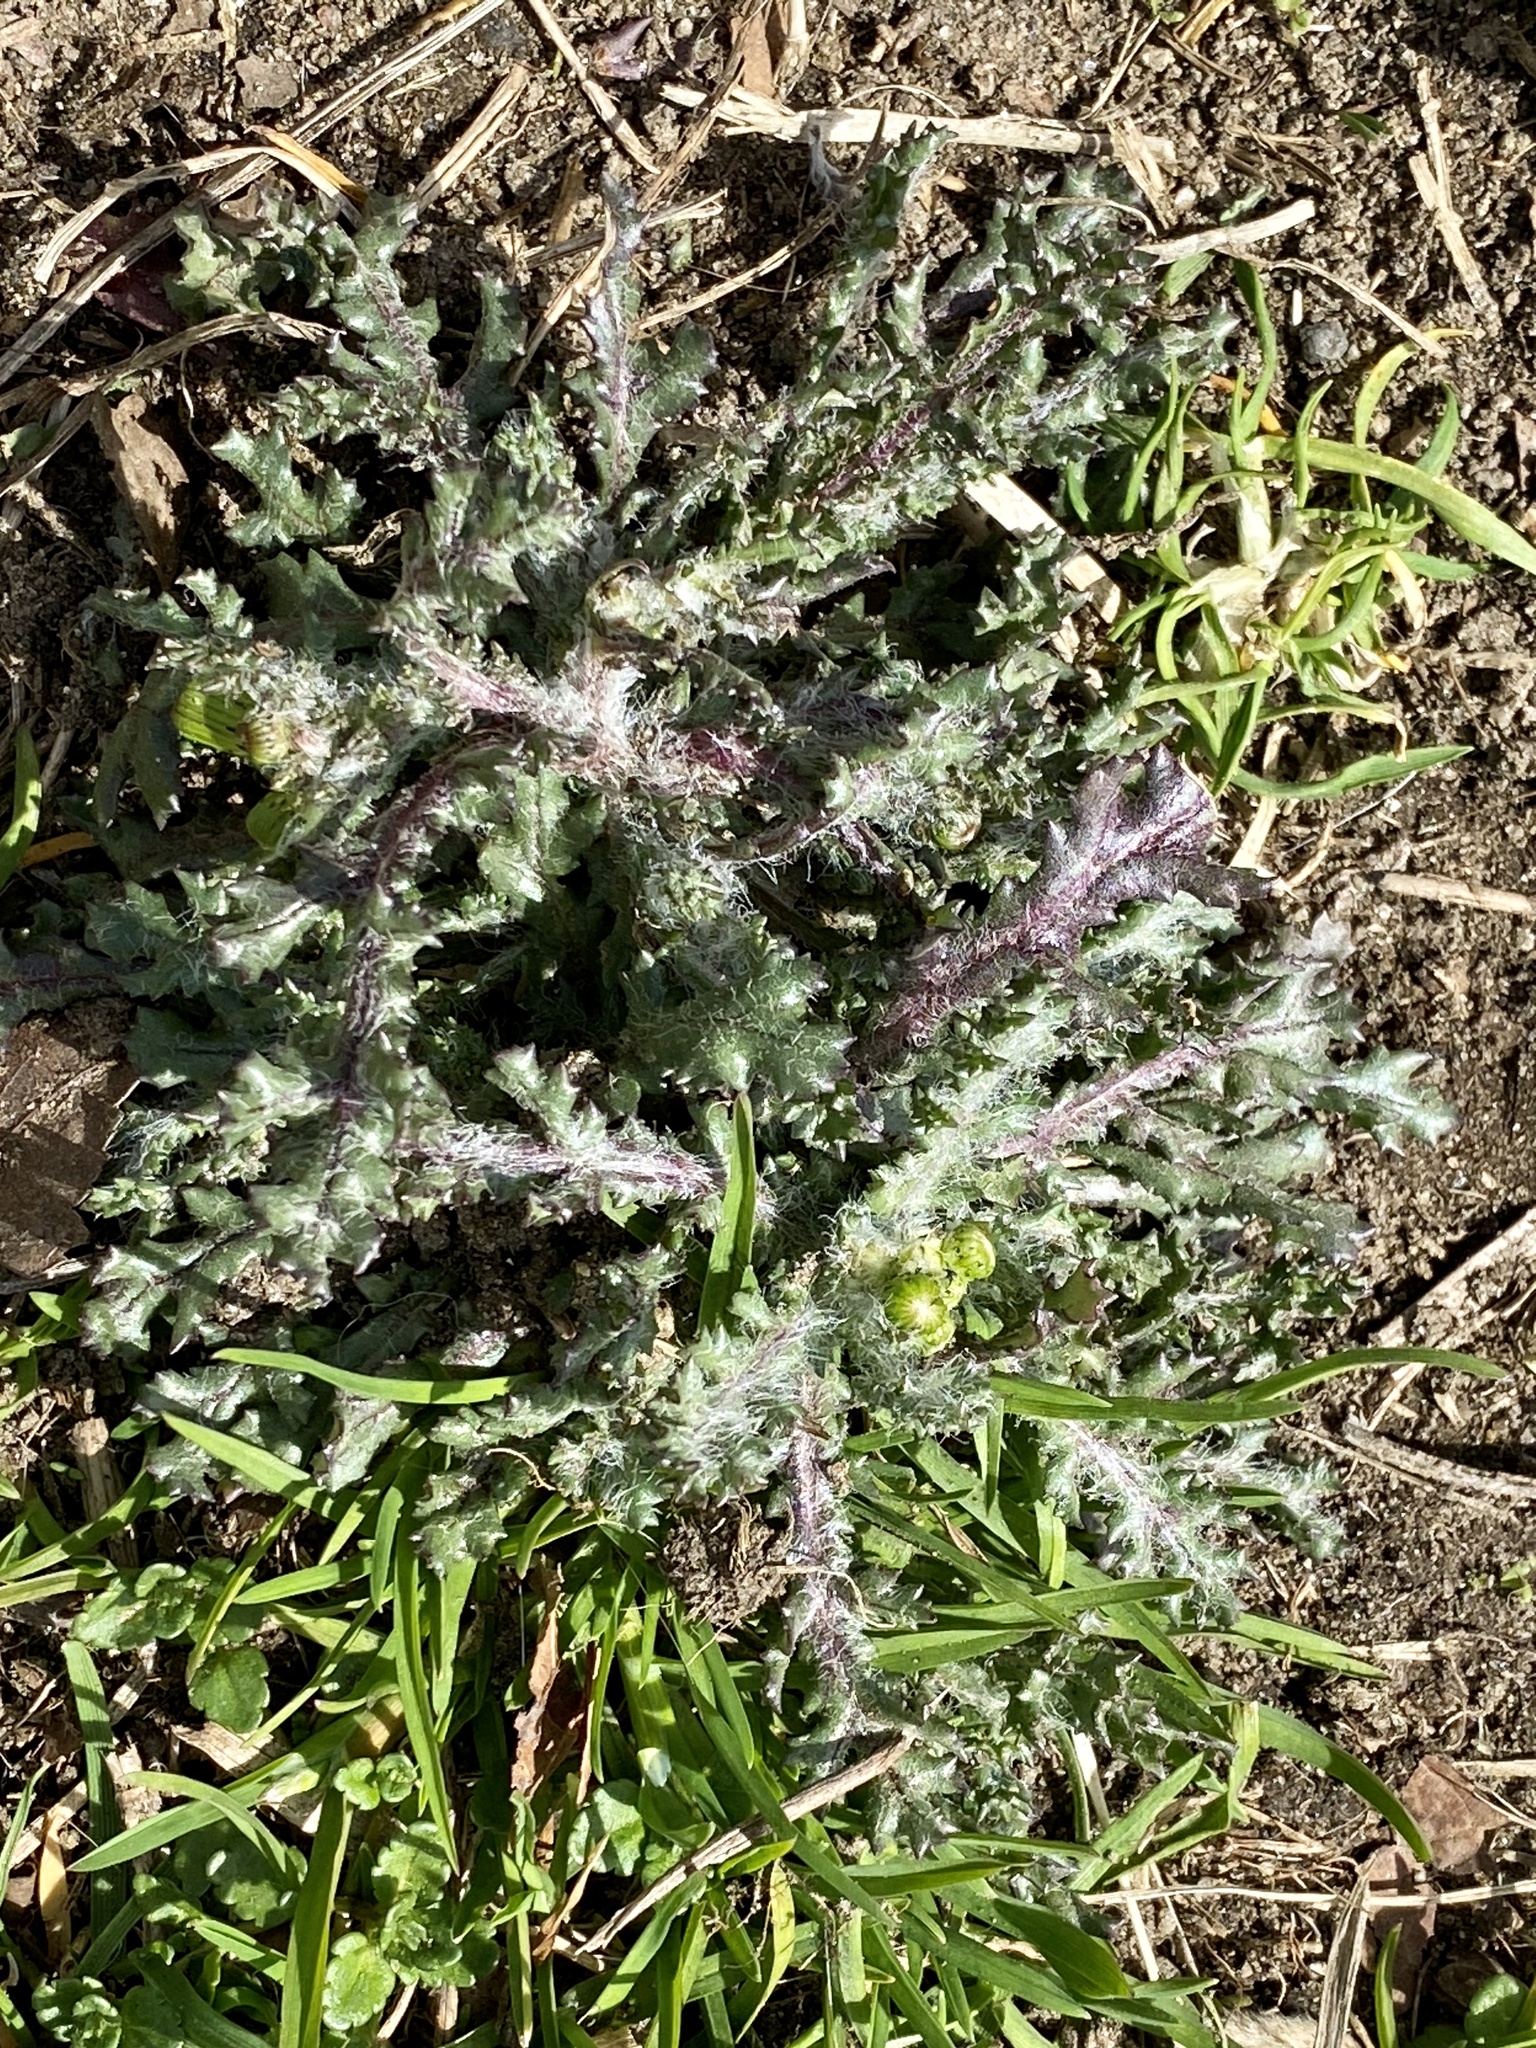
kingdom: Plantae
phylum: Tracheophyta
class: Magnoliopsida
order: Asterales
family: Asteraceae
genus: Senecio
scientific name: Senecio vulgaris
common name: Old-man-in-the-spring
